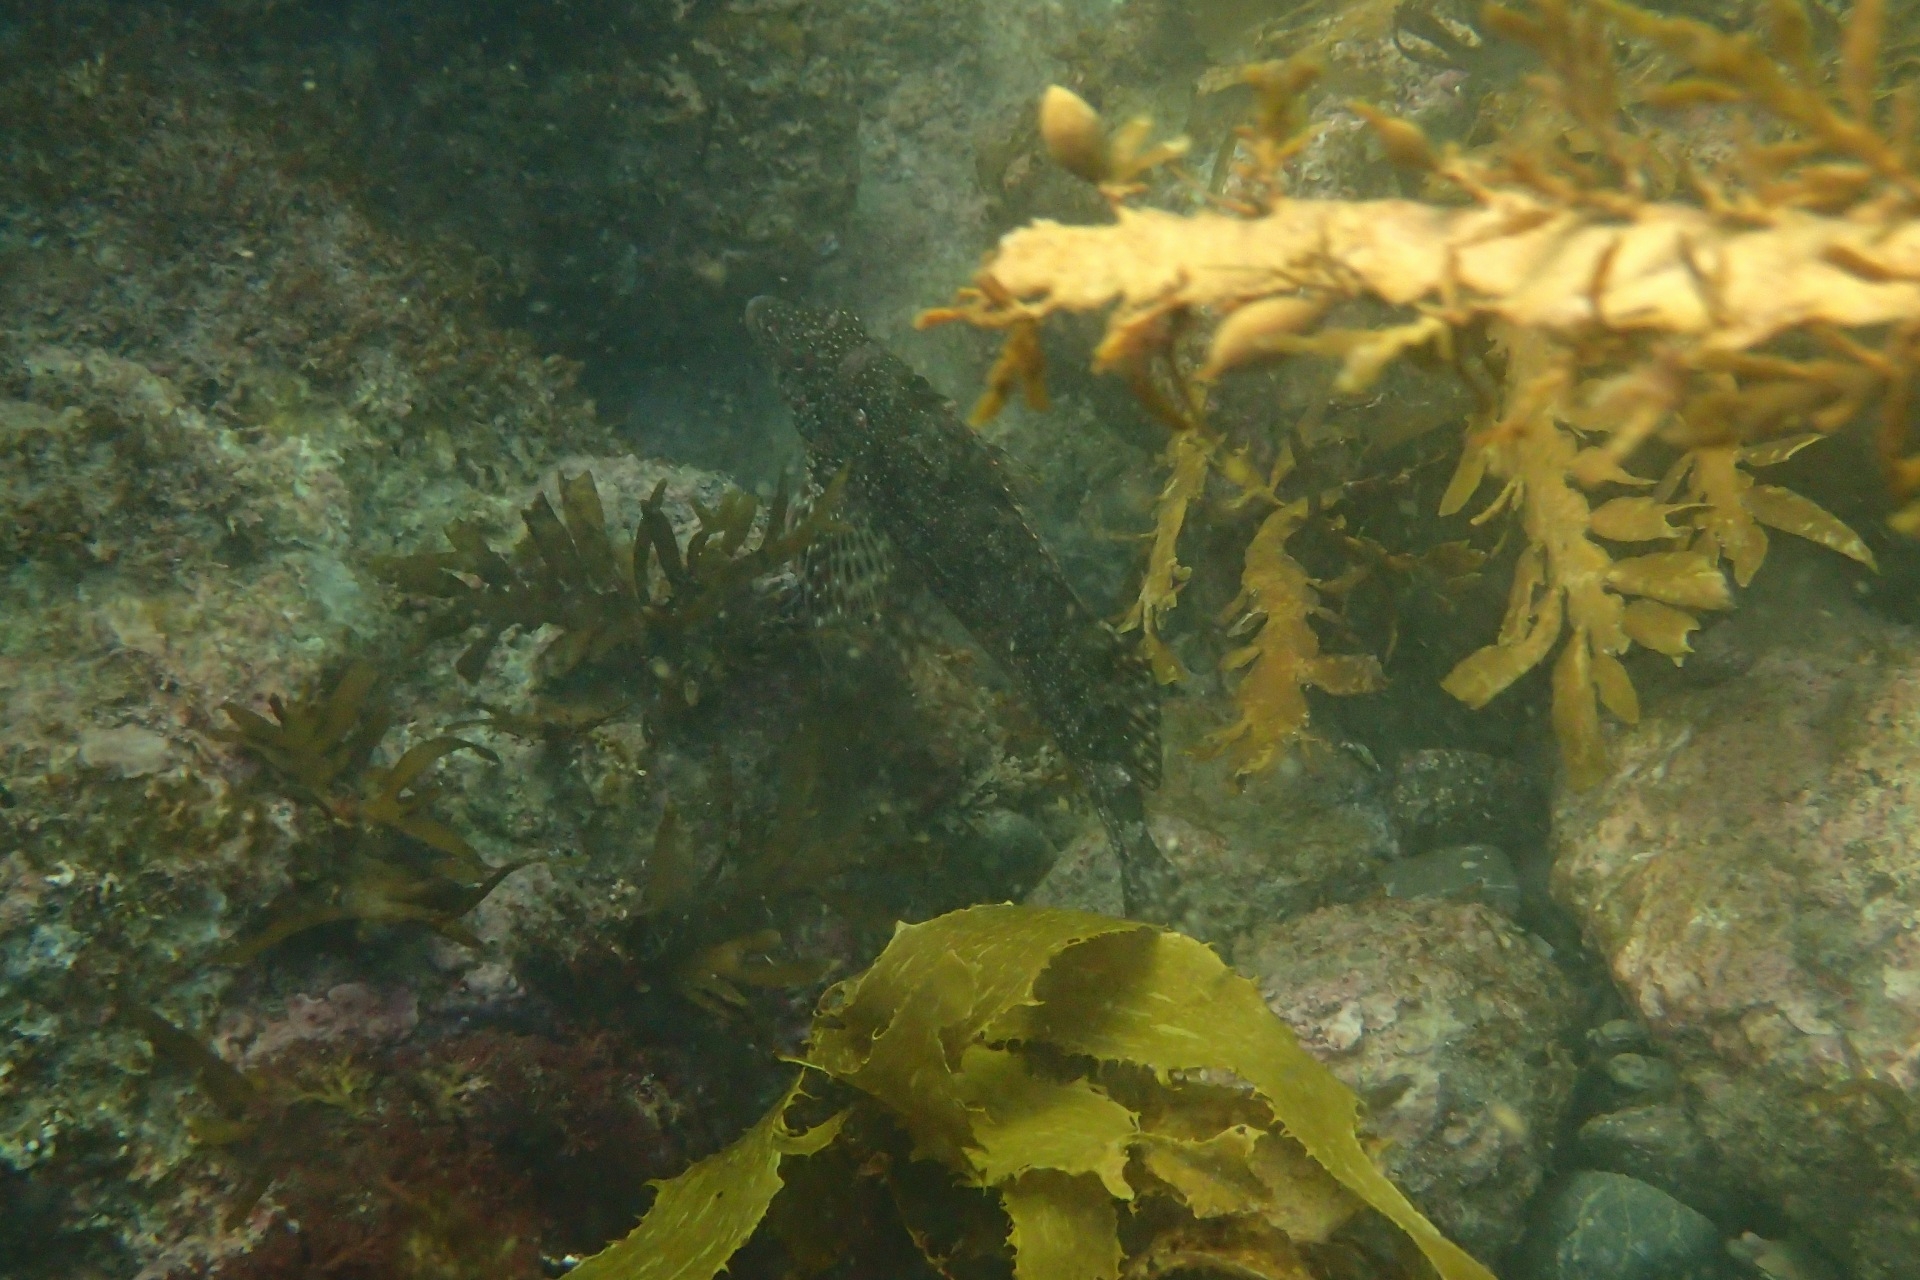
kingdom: Animalia
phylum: Chordata
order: Perciformes
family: Chironemidae
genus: Chironemus
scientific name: Chironemus marmoratus
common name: Kelpfish
